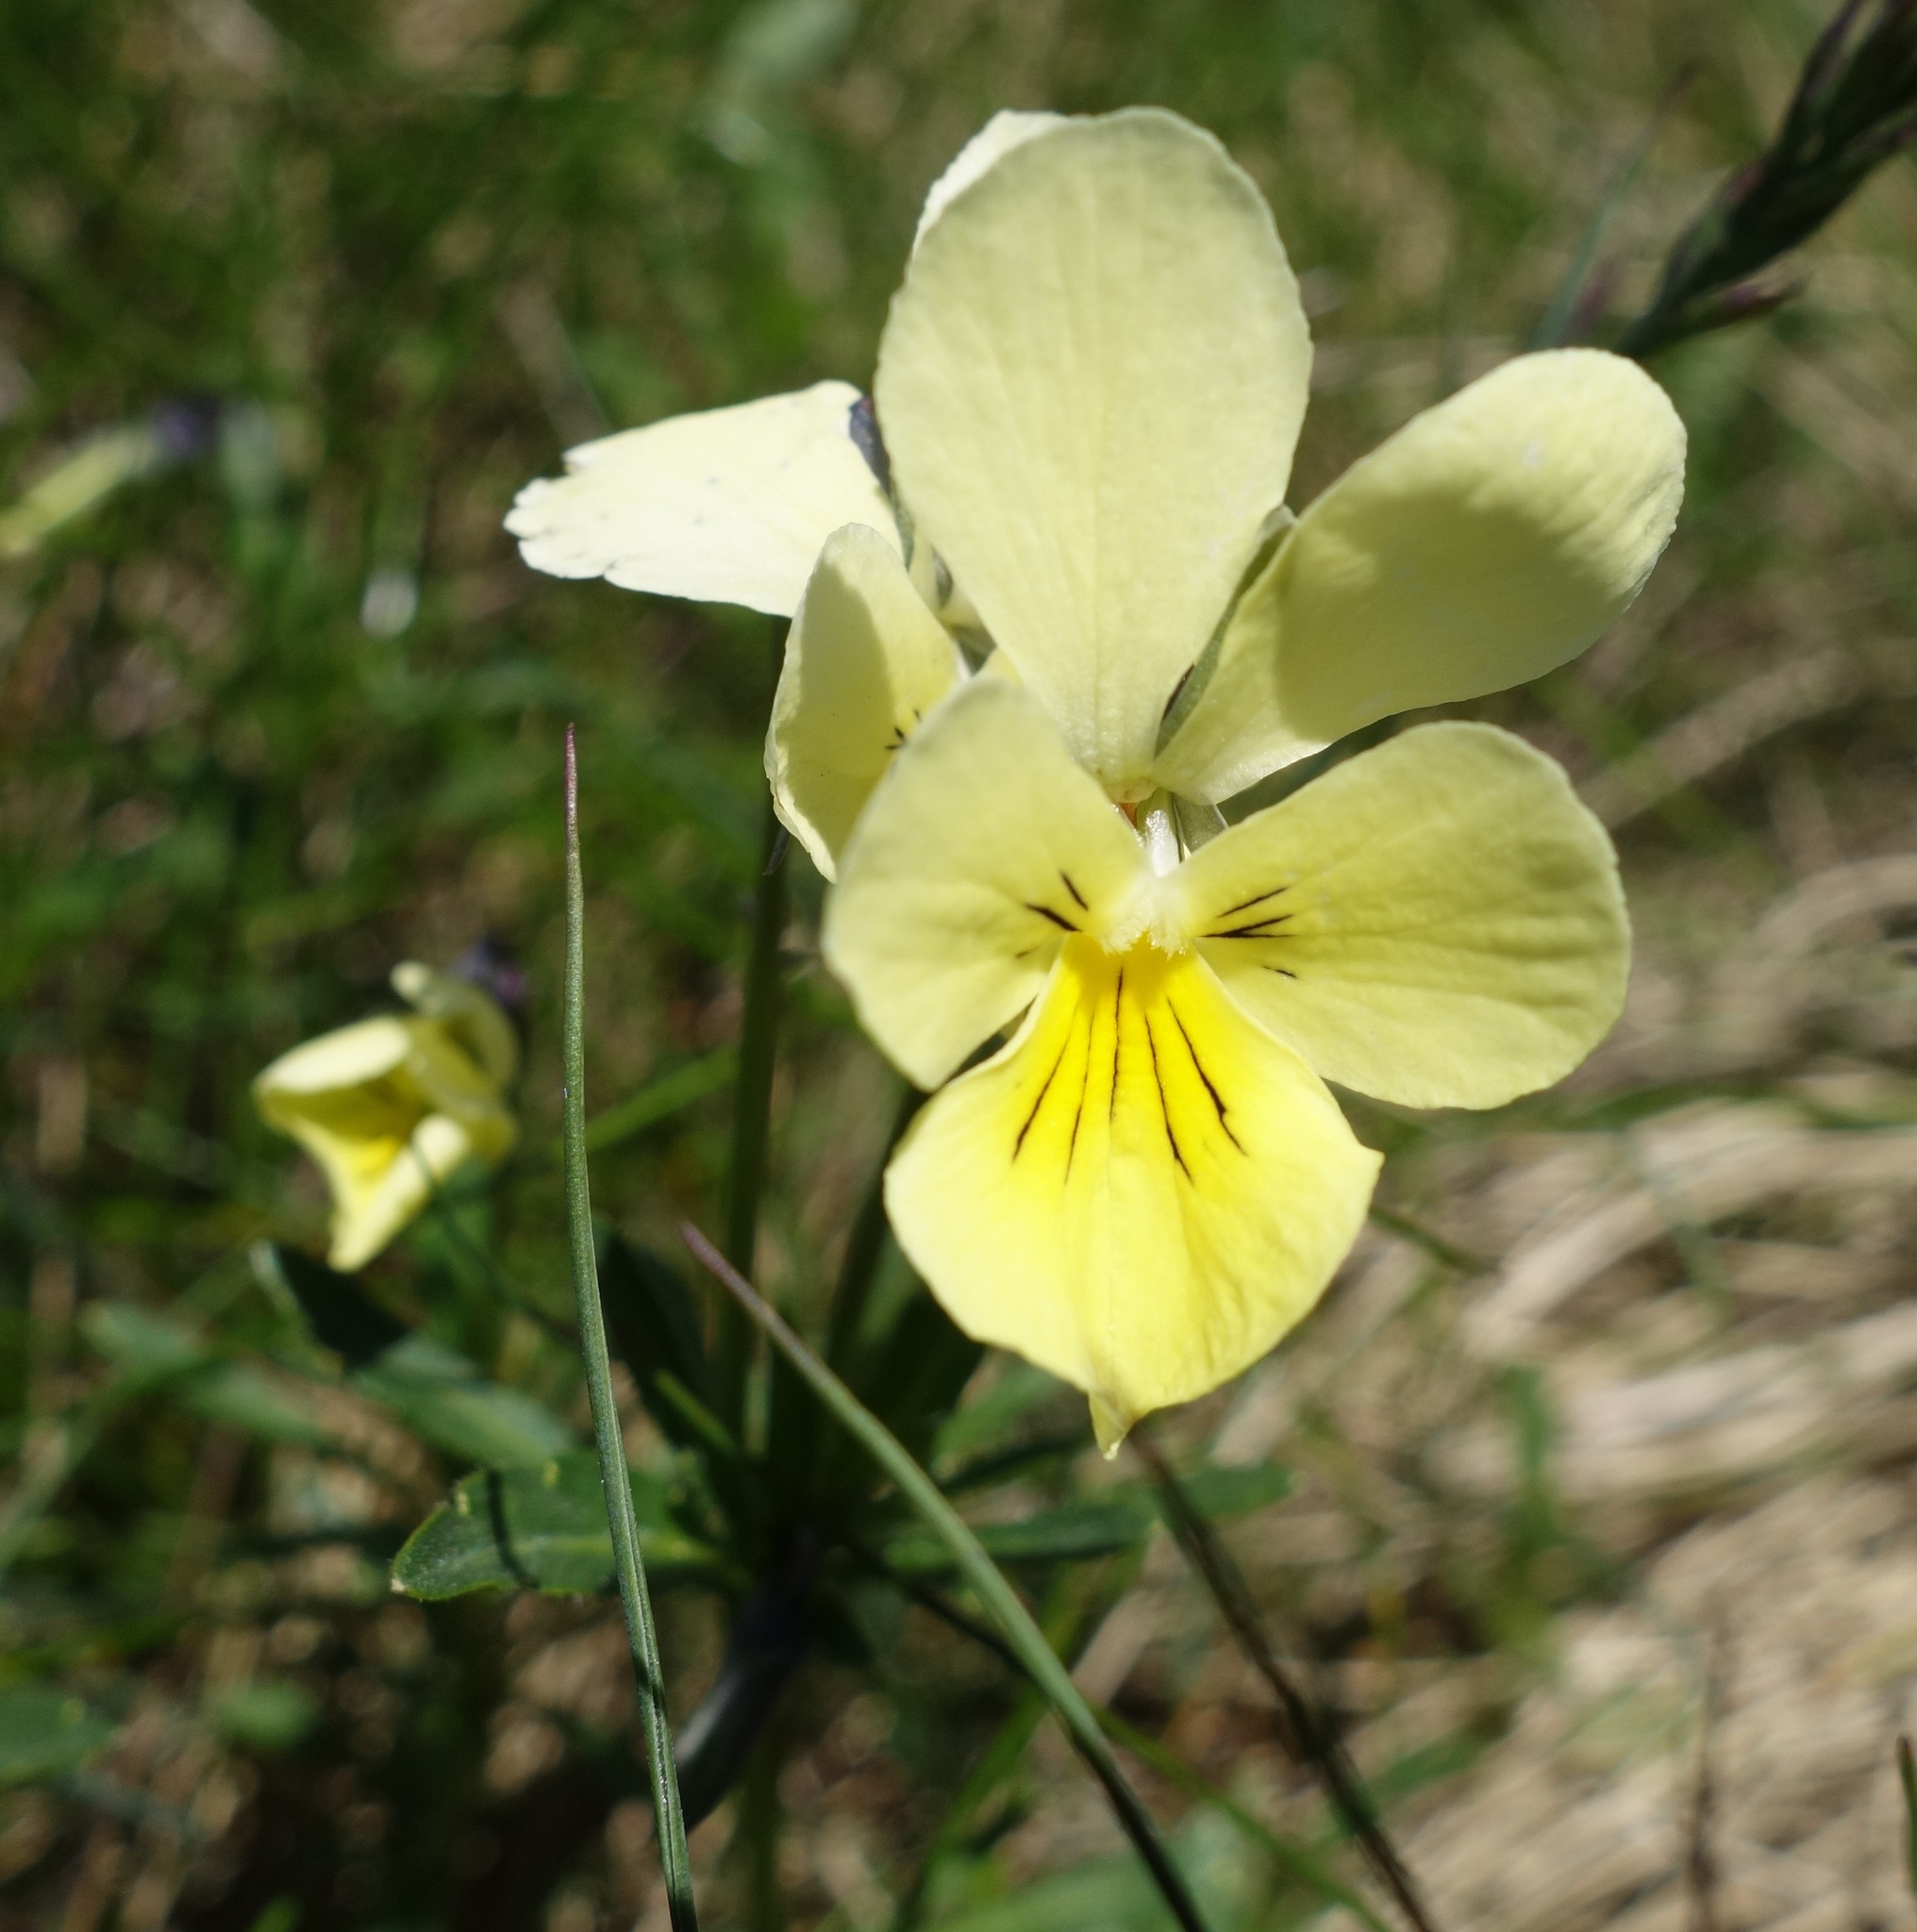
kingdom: Plantae
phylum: Tracheophyta
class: Magnoliopsida
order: Malpighiales
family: Violaceae
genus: Viola
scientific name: Viola lutea
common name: Mountain pansy
